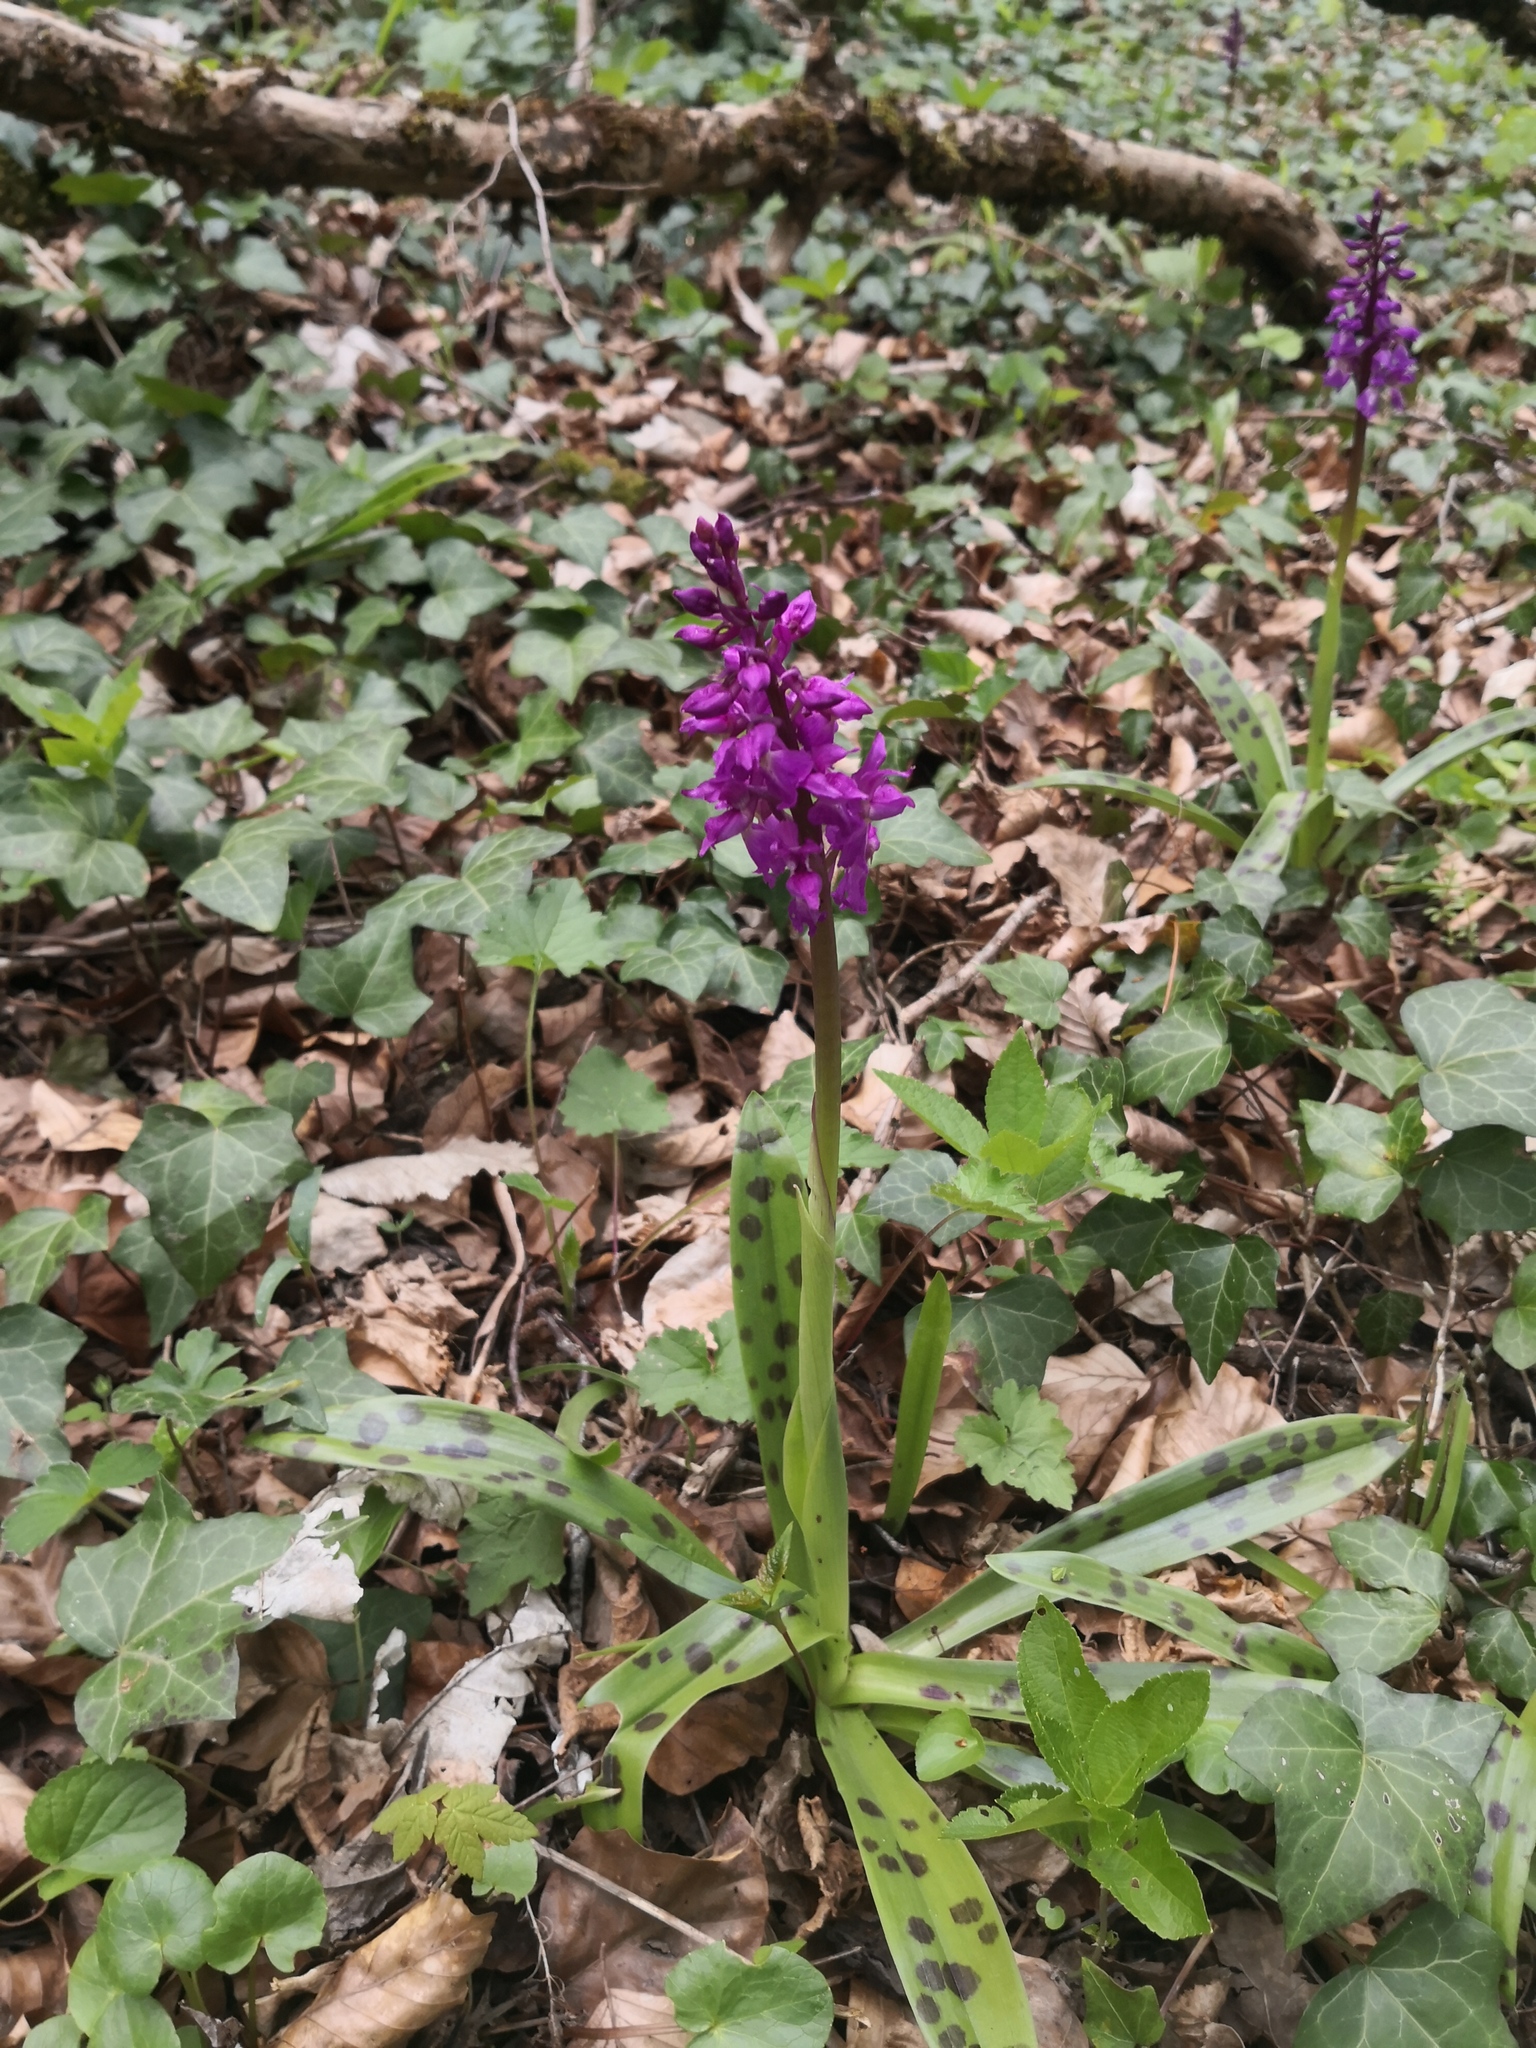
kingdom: Plantae
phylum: Tracheophyta
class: Liliopsida
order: Asparagales
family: Orchidaceae
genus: Orchis
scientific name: Orchis mascula
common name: Early-purple orchid
